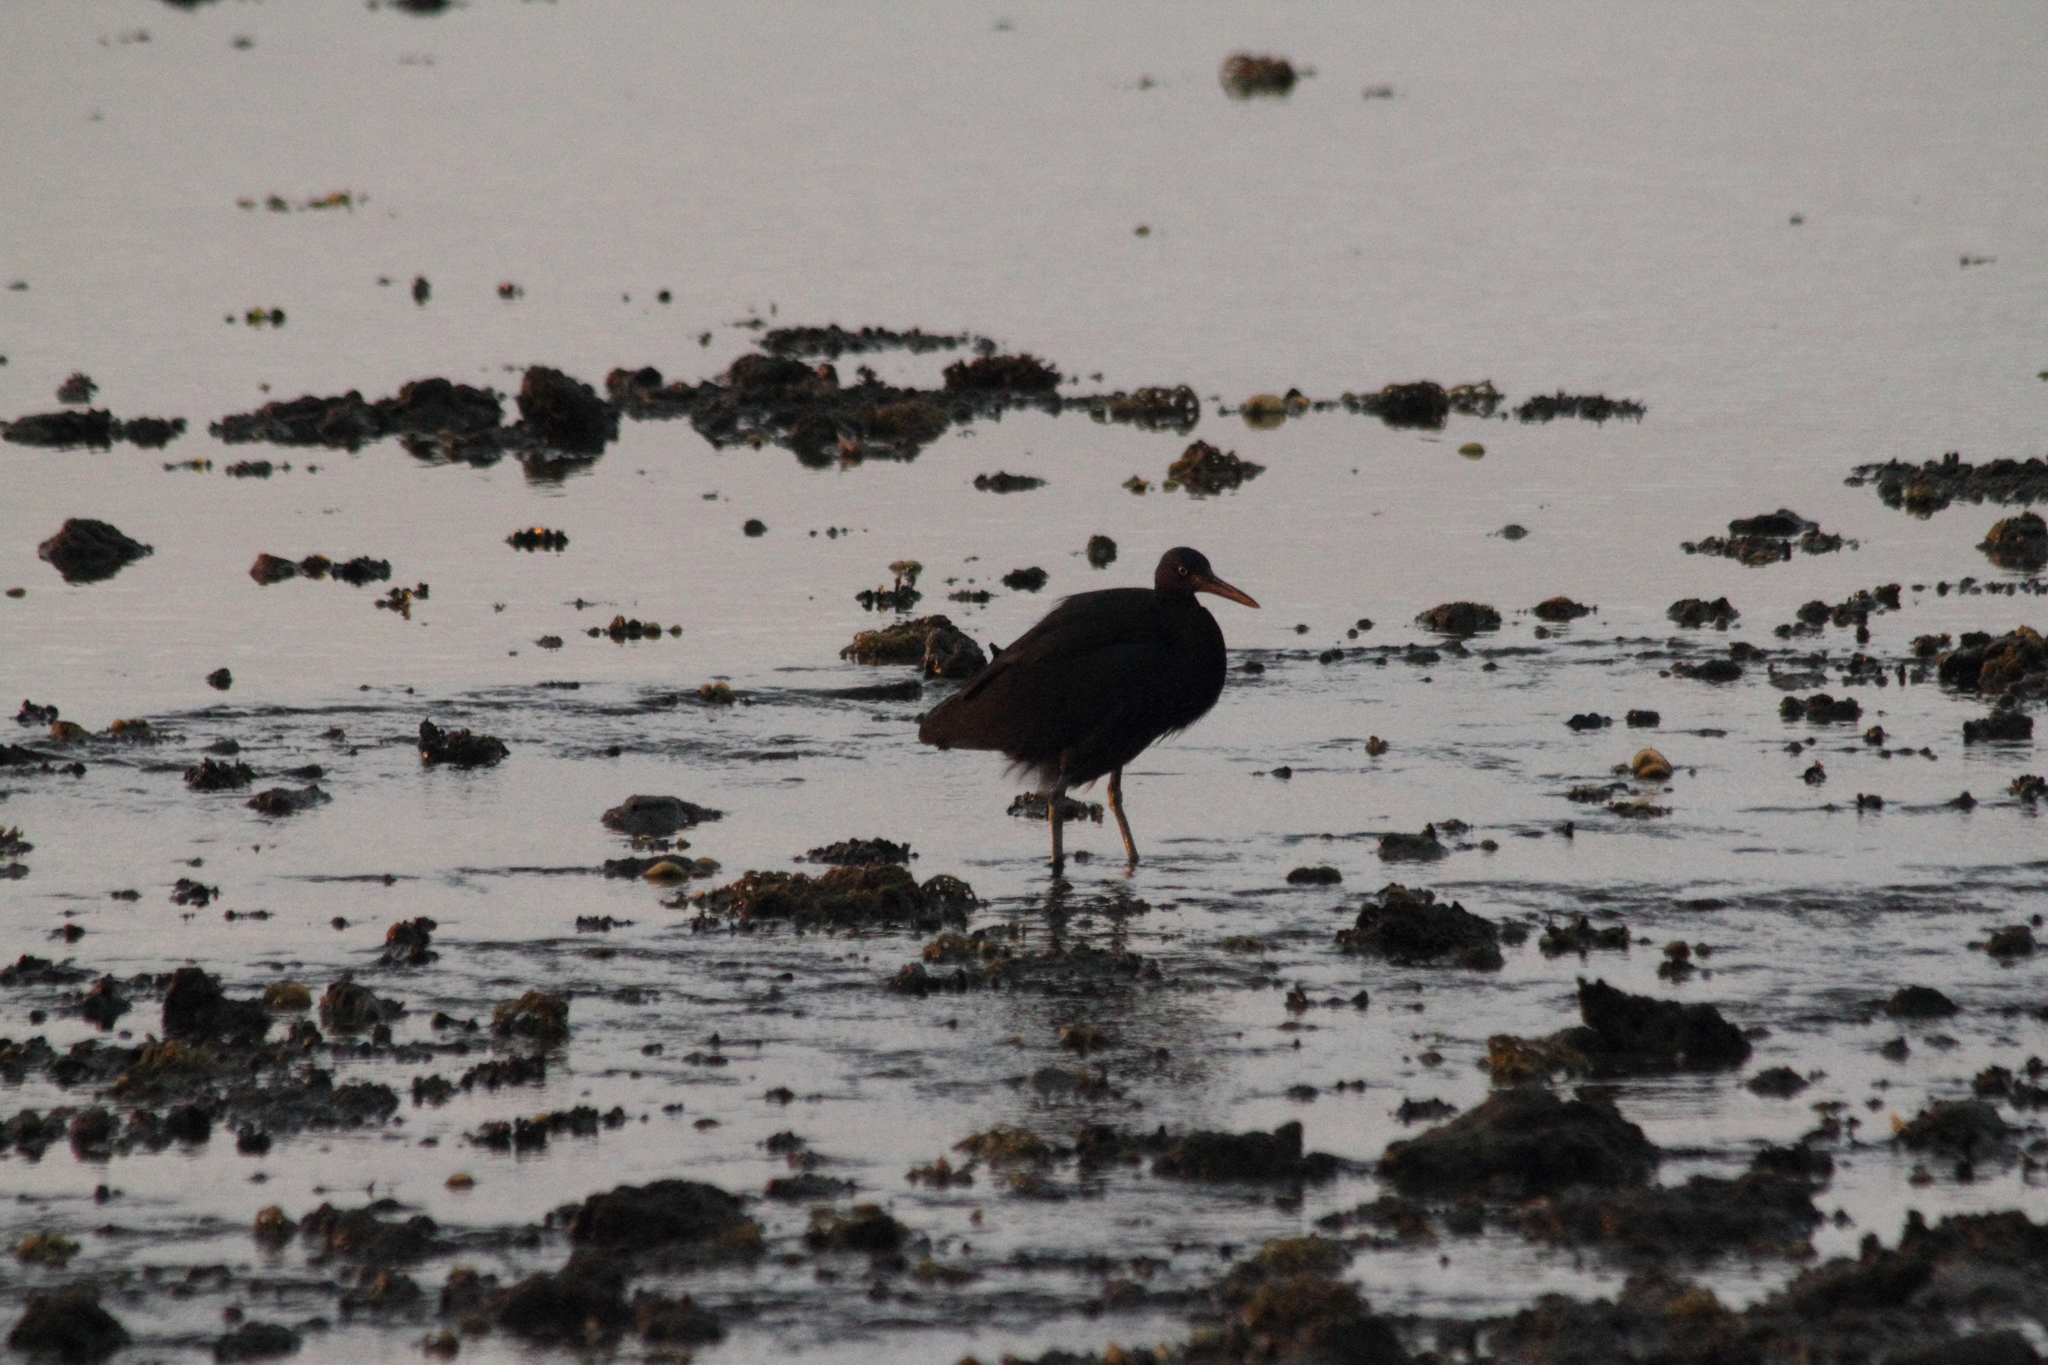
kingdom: Animalia
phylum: Chordata
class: Aves
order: Pelecaniformes
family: Ardeidae
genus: Egretta
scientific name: Egretta sacra
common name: Pacific reef heron
